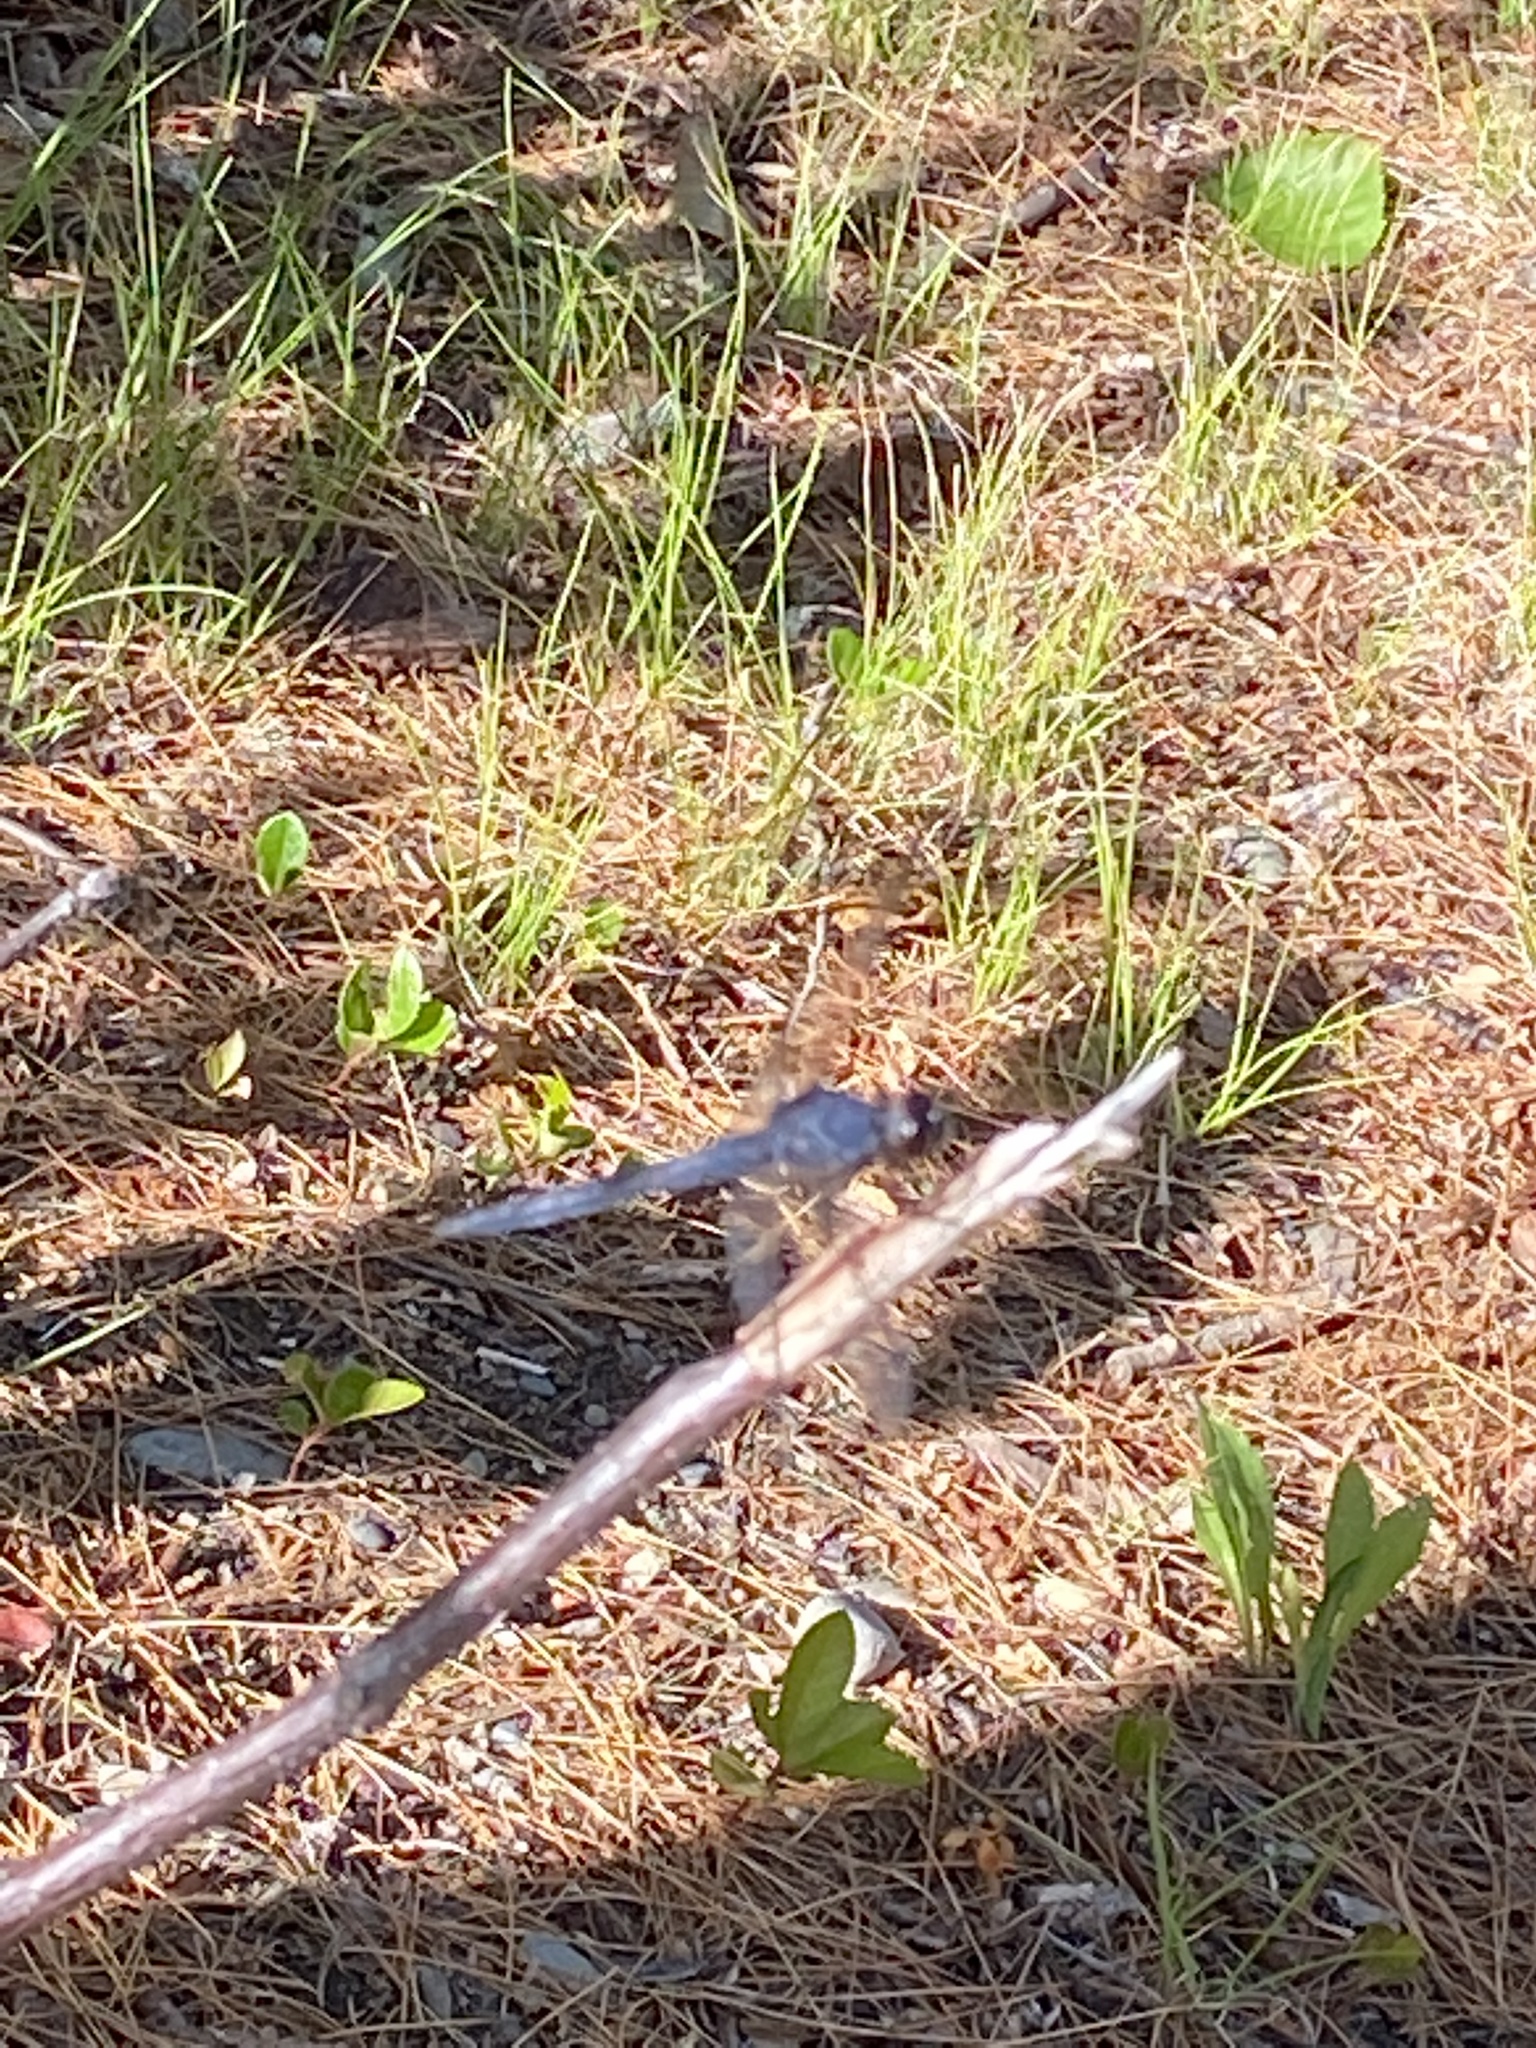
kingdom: Animalia
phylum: Arthropoda
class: Insecta
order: Odonata
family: Libellulidae
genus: Libellula
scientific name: Libellula incesta
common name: Slaty skimmer
